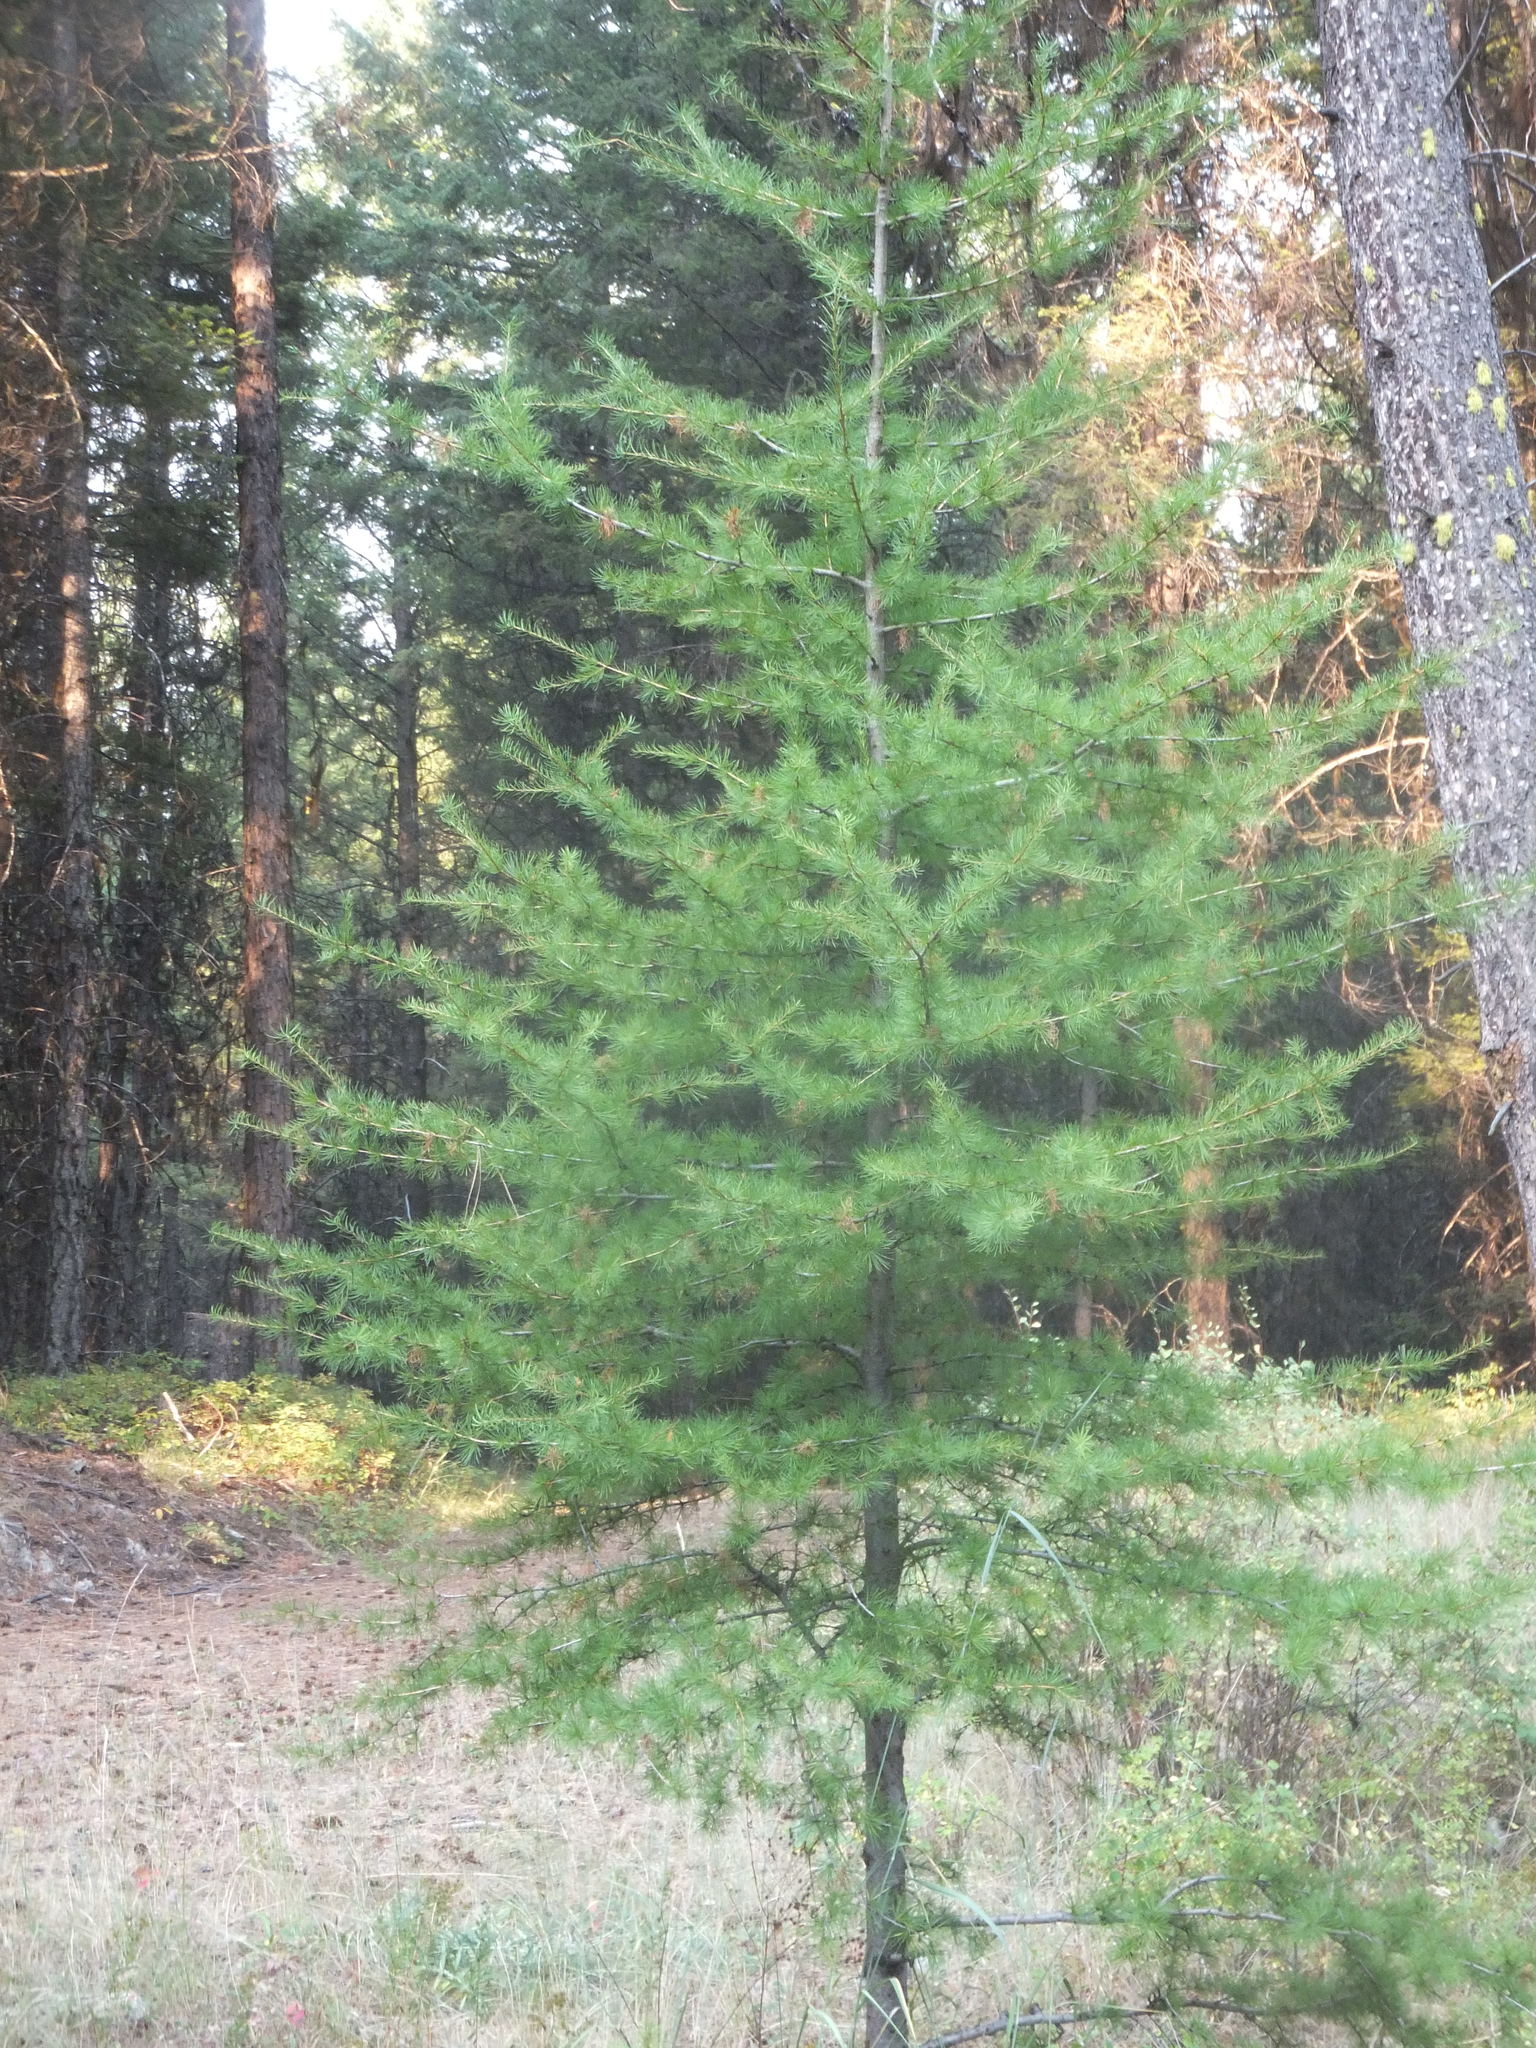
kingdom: Plantae
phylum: Tracheophyta
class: Pinopsida
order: Pinales
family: Pinaceae
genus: Larix
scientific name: Larix occidentalis
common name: Western larch
